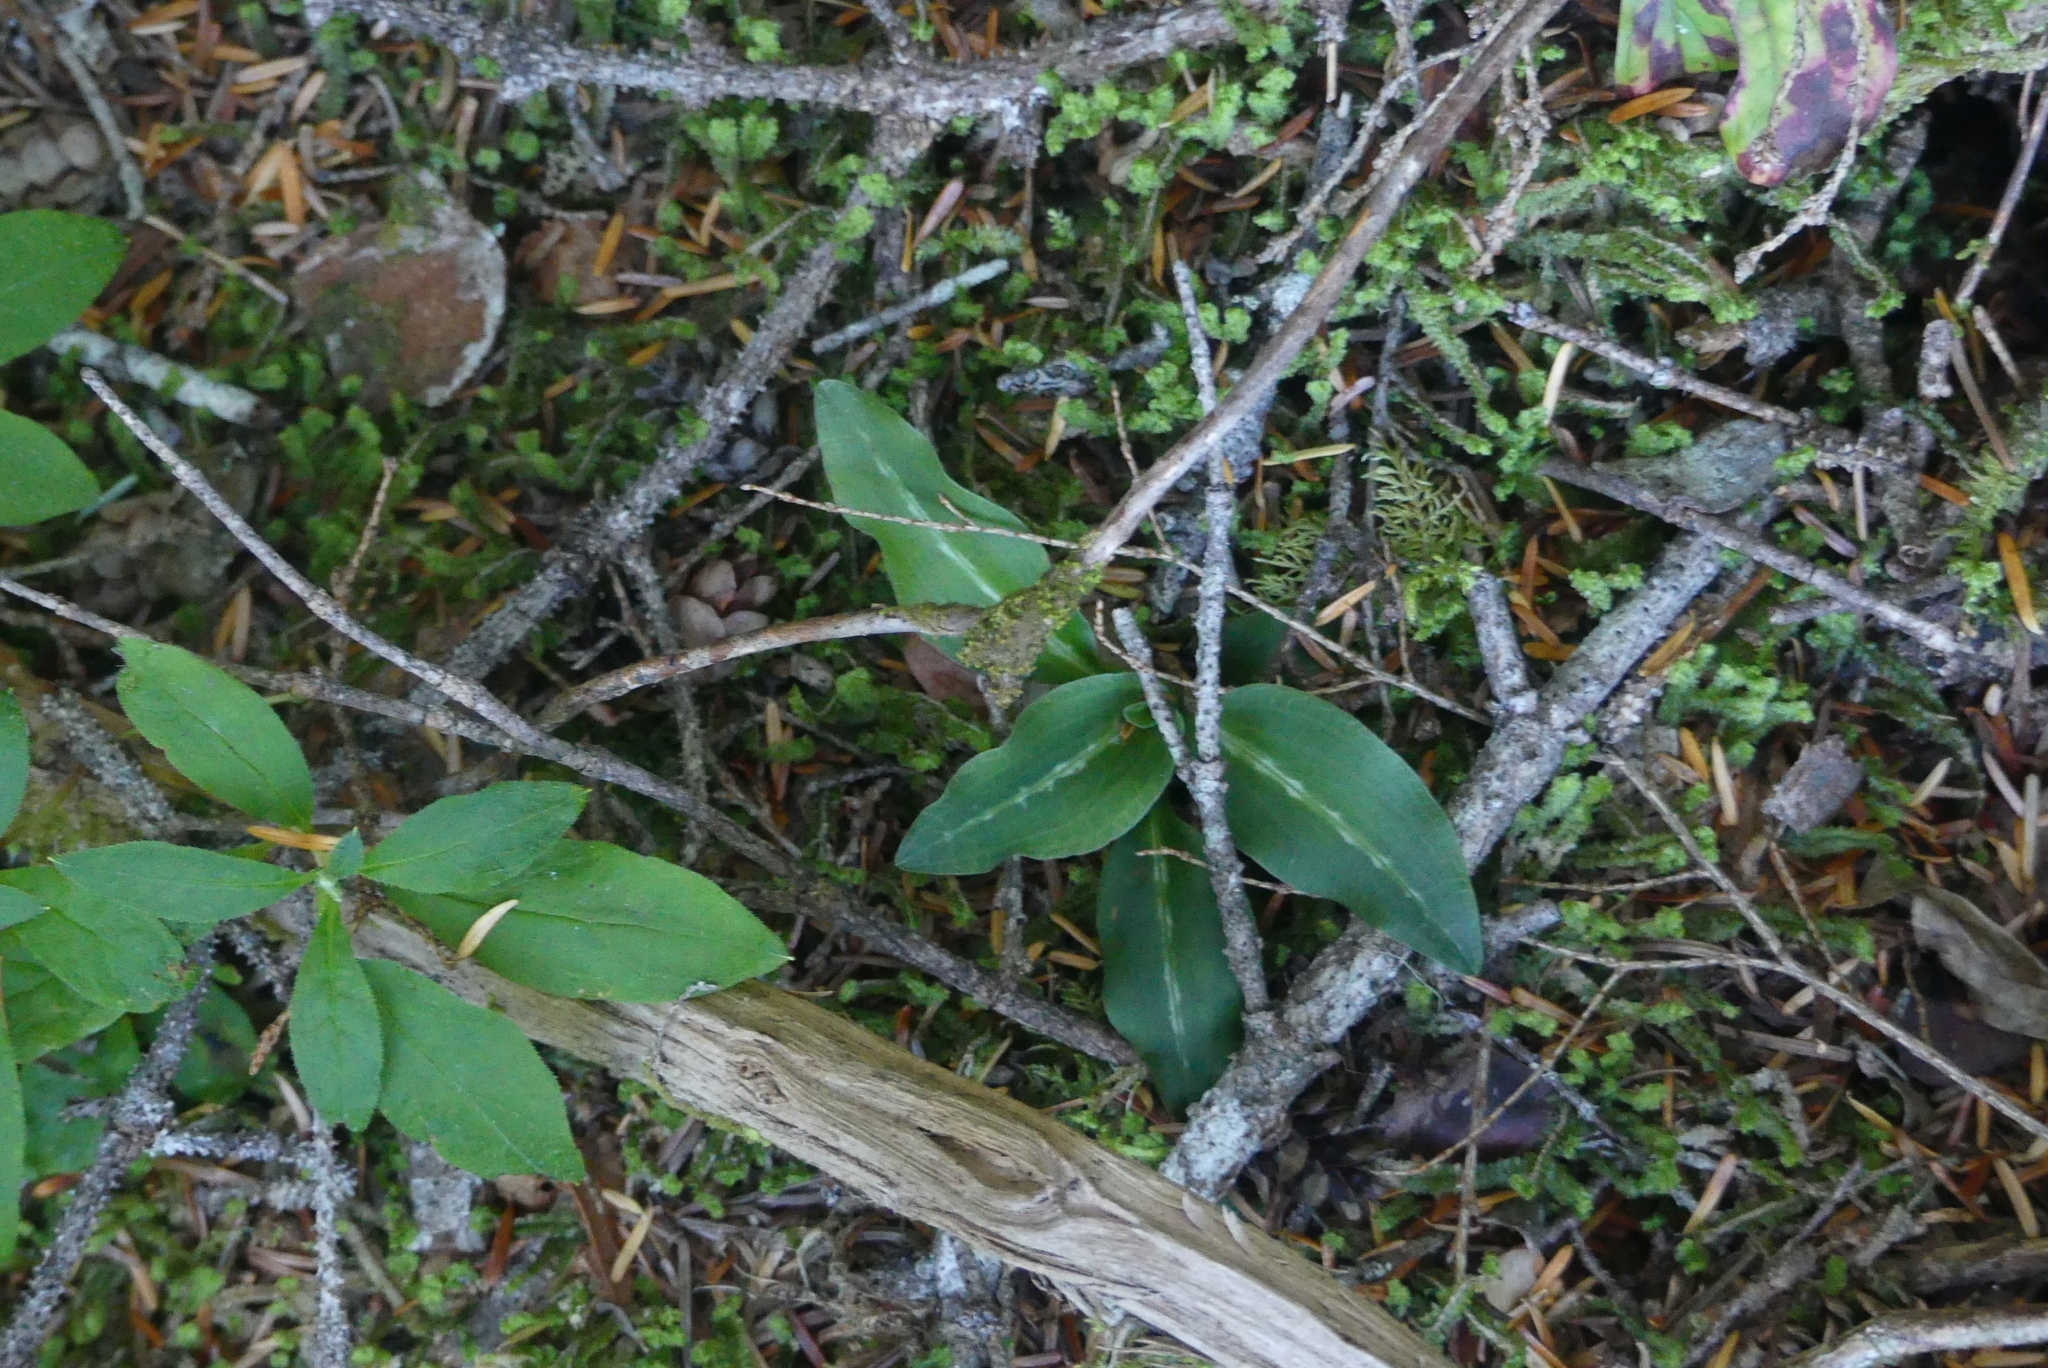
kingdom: Plantae
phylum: Tracheophyta
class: Liliopsida
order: Asparagales
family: Orchidaceae
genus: Goodyera
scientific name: Goodyera oblongifolia
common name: Giant rattlesnake-plantain
